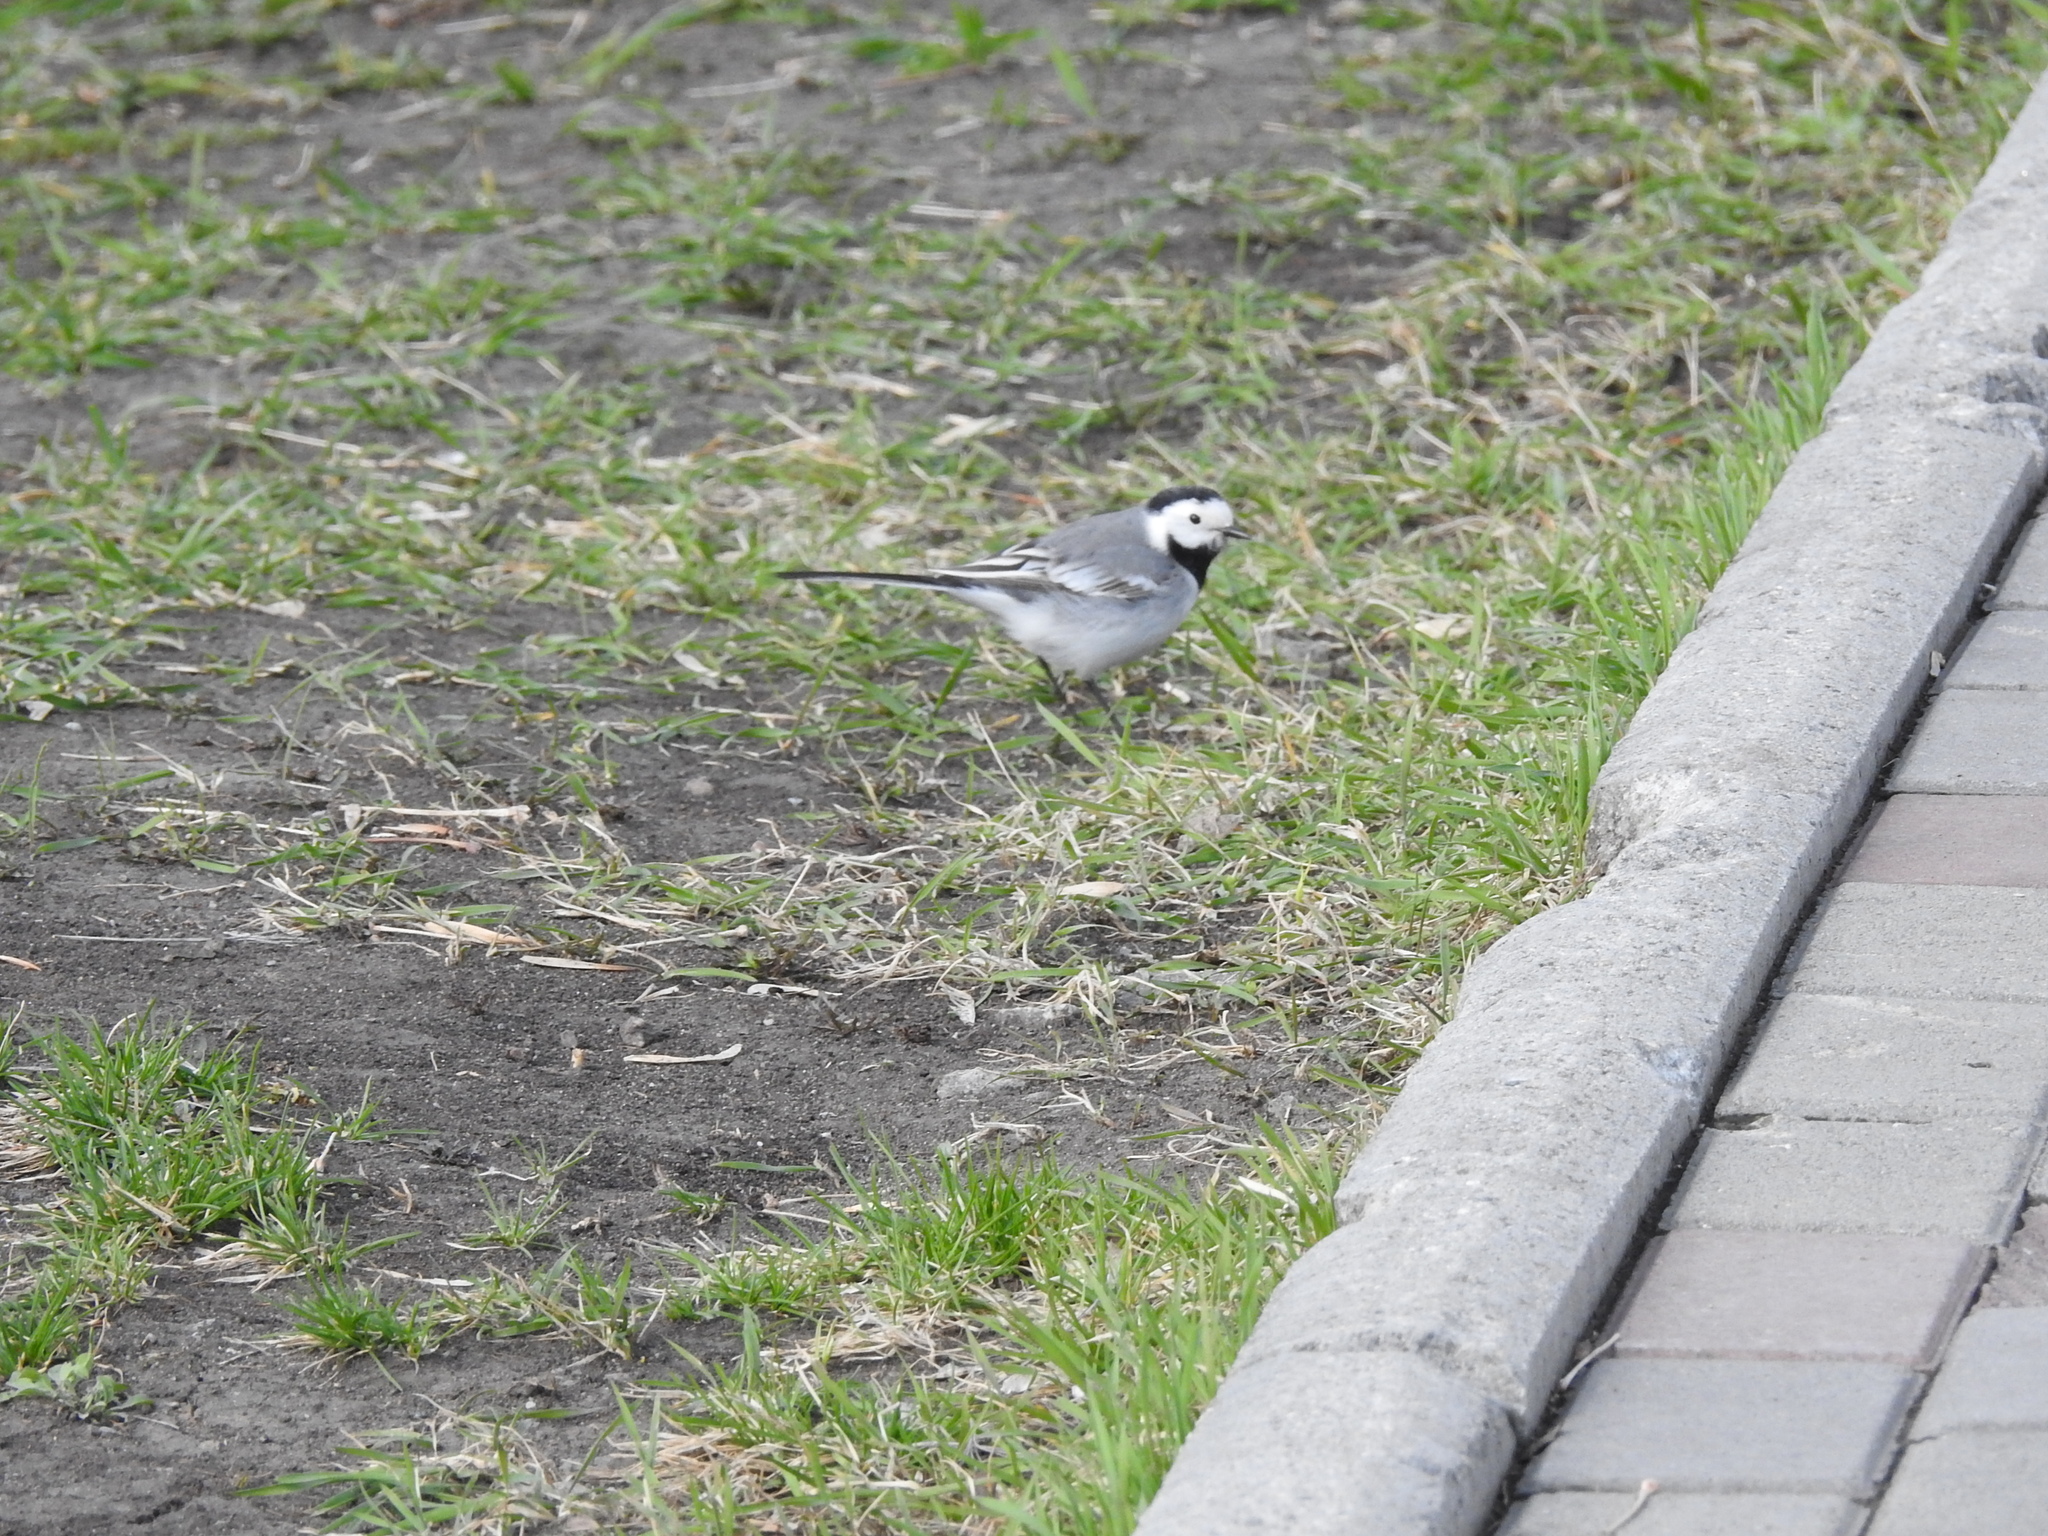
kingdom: Animalia
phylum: Chordata
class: Aves
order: Passeriformes
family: Motacillidae
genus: Motacilla
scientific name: Motacilla alba
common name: White wagtail
